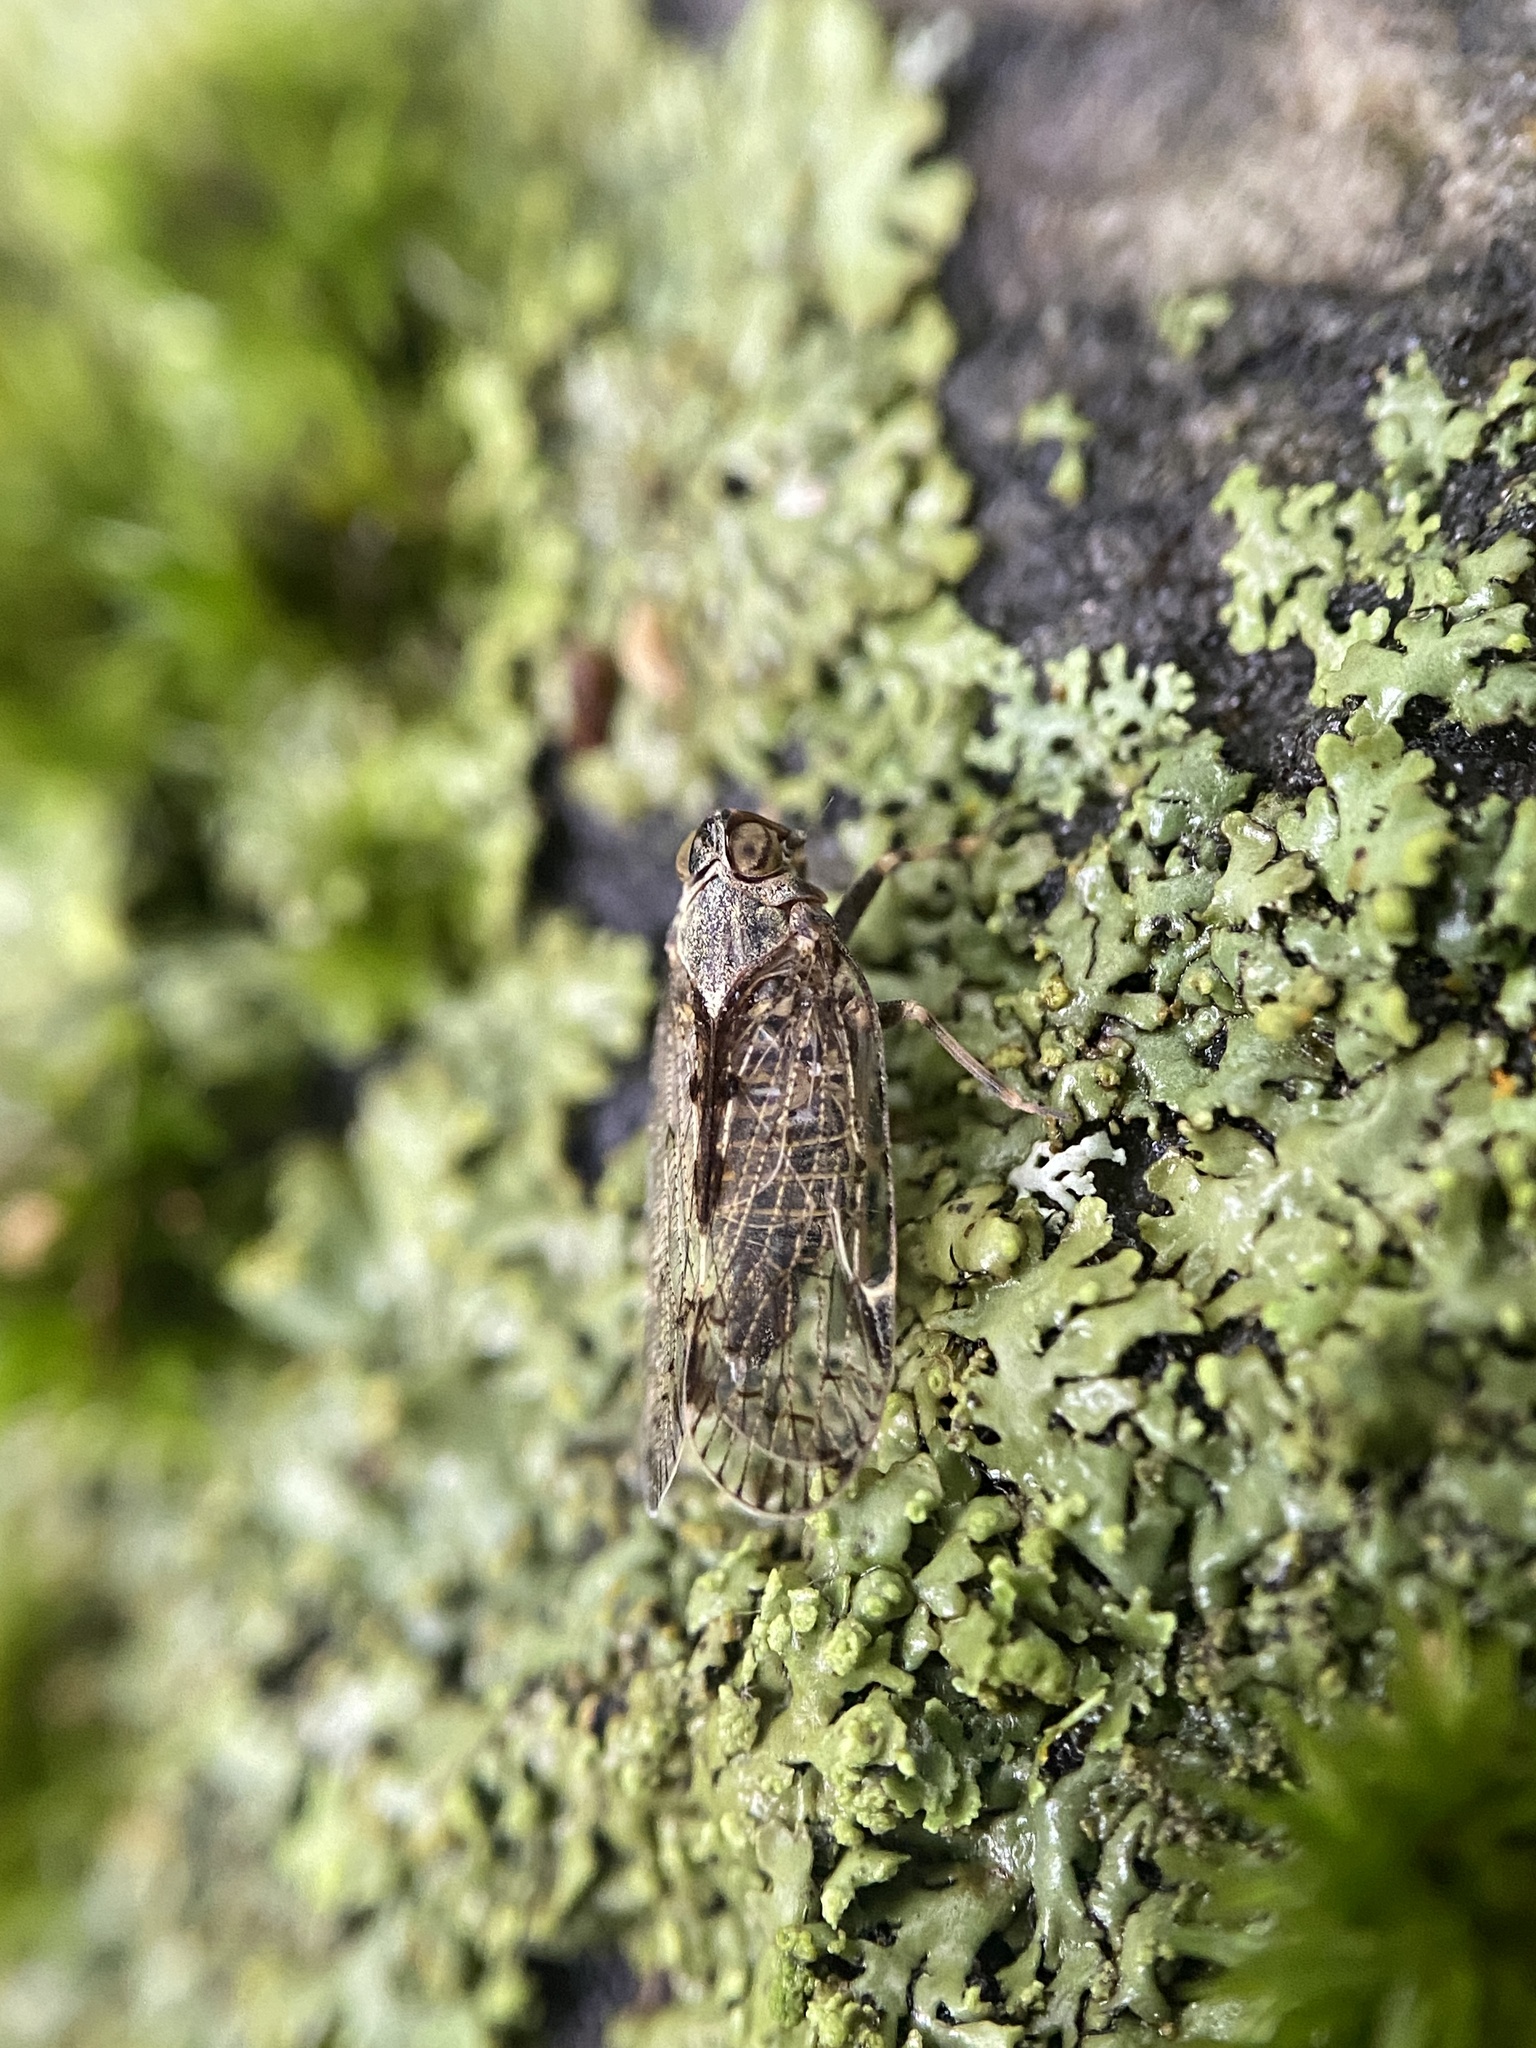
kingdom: Animalia
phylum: Arthropoda
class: Insecta
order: Hemiptera
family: Cixiidae
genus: Melanoliarus
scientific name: Melanoliarus placitus
